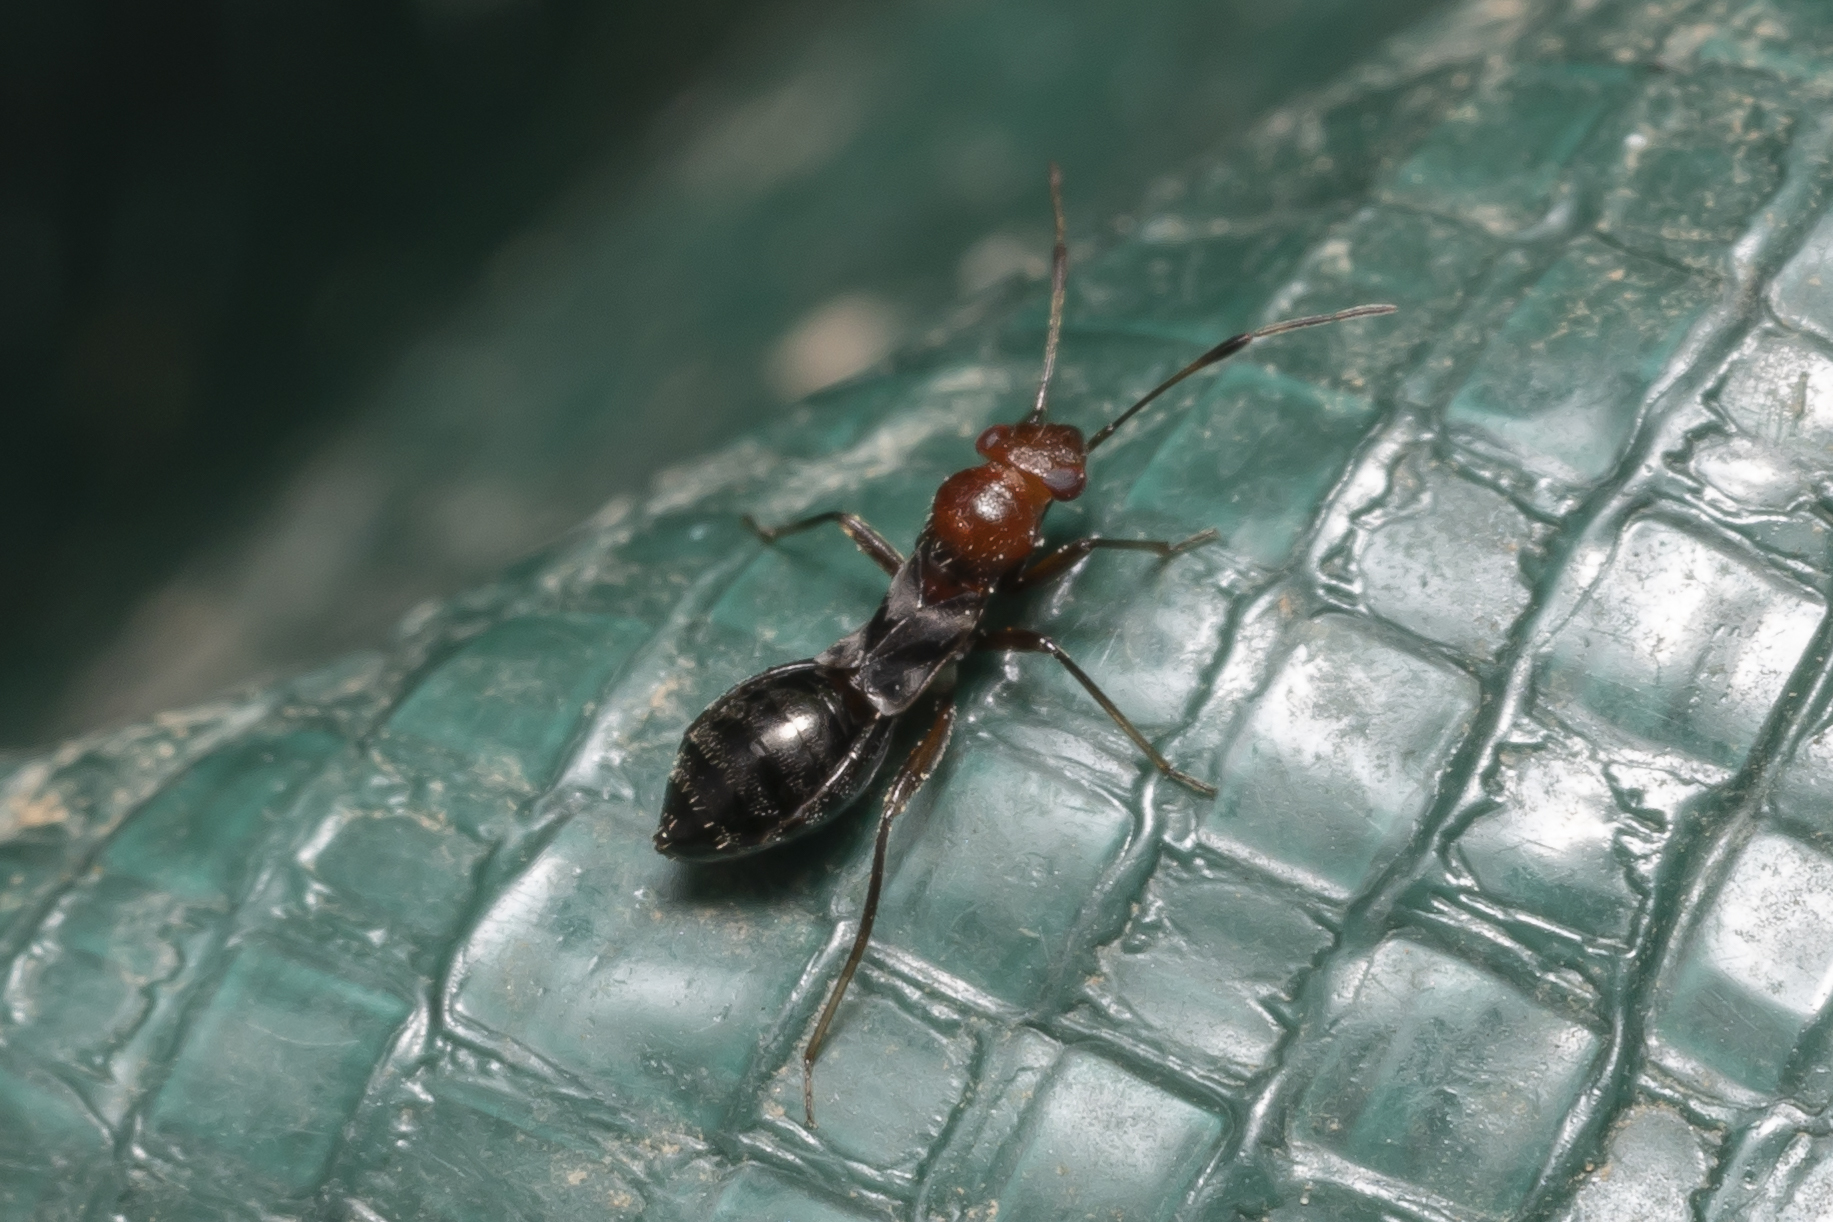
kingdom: Animalia
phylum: Arthropoda
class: Insecta
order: Hemiptera
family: Miridae
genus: Mimocoris
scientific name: Mimocoris rugicollis
